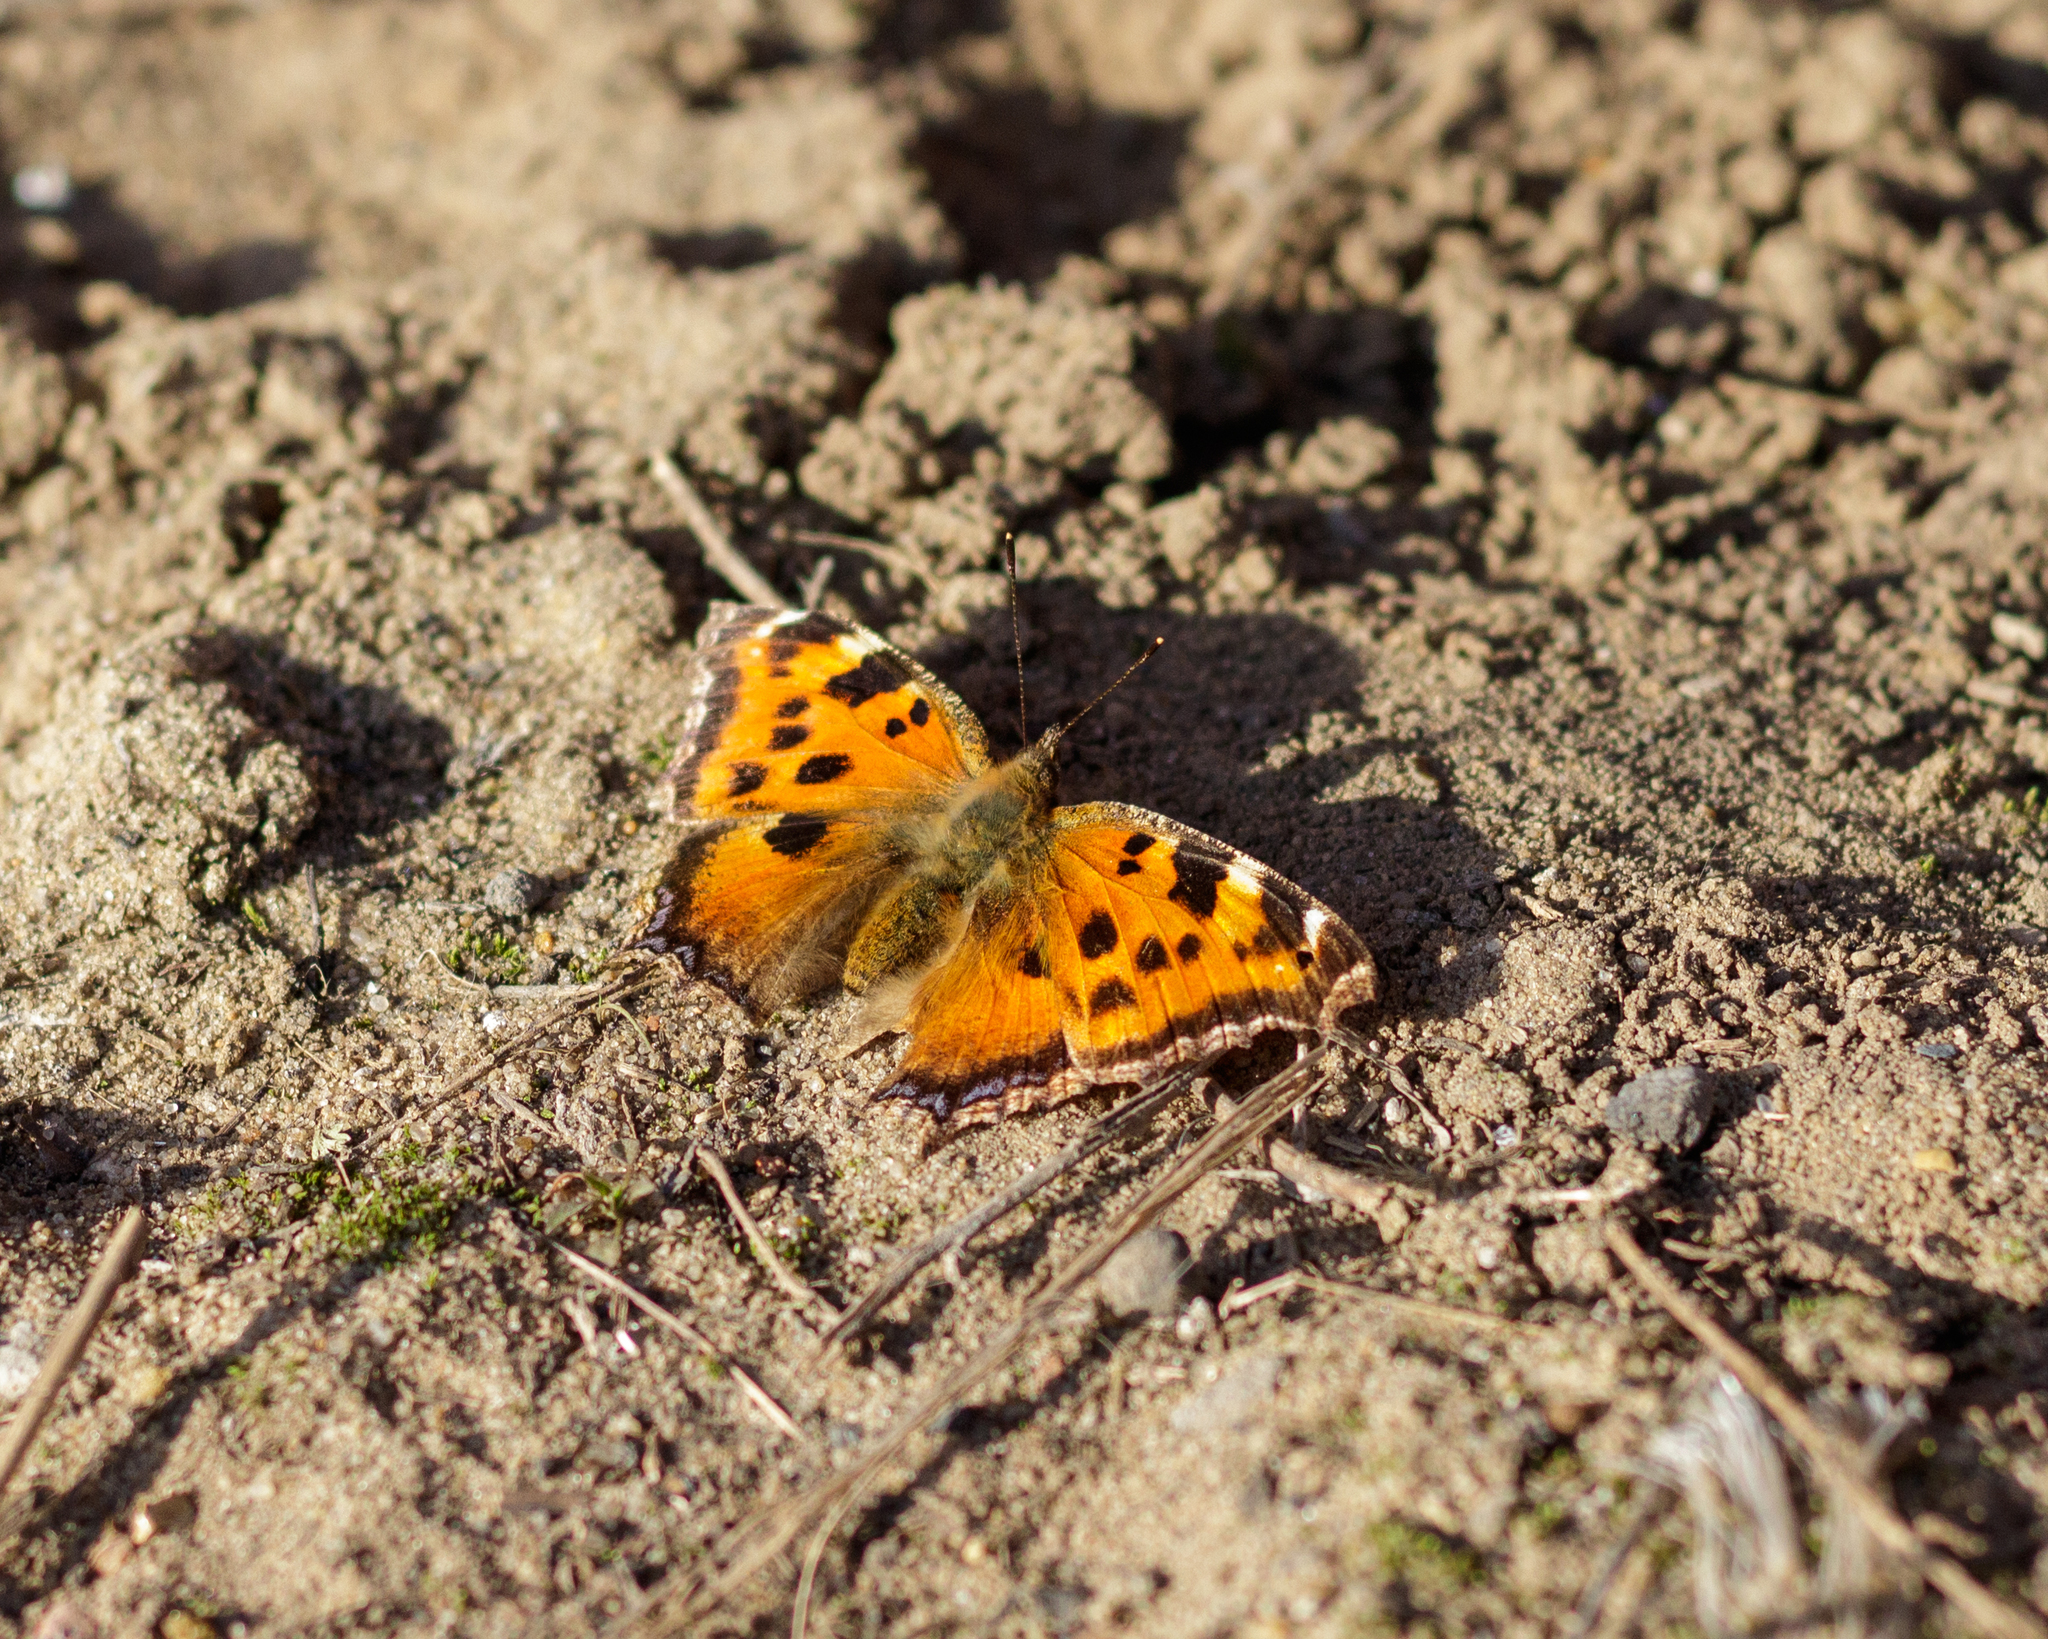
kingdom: Animalia
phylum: Arthropoda
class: Insecta
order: Lepidoptera
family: Nymphalidae
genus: Nymphalis
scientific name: Nymphalis xanthomelas
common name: Scarce tortoiseshell
